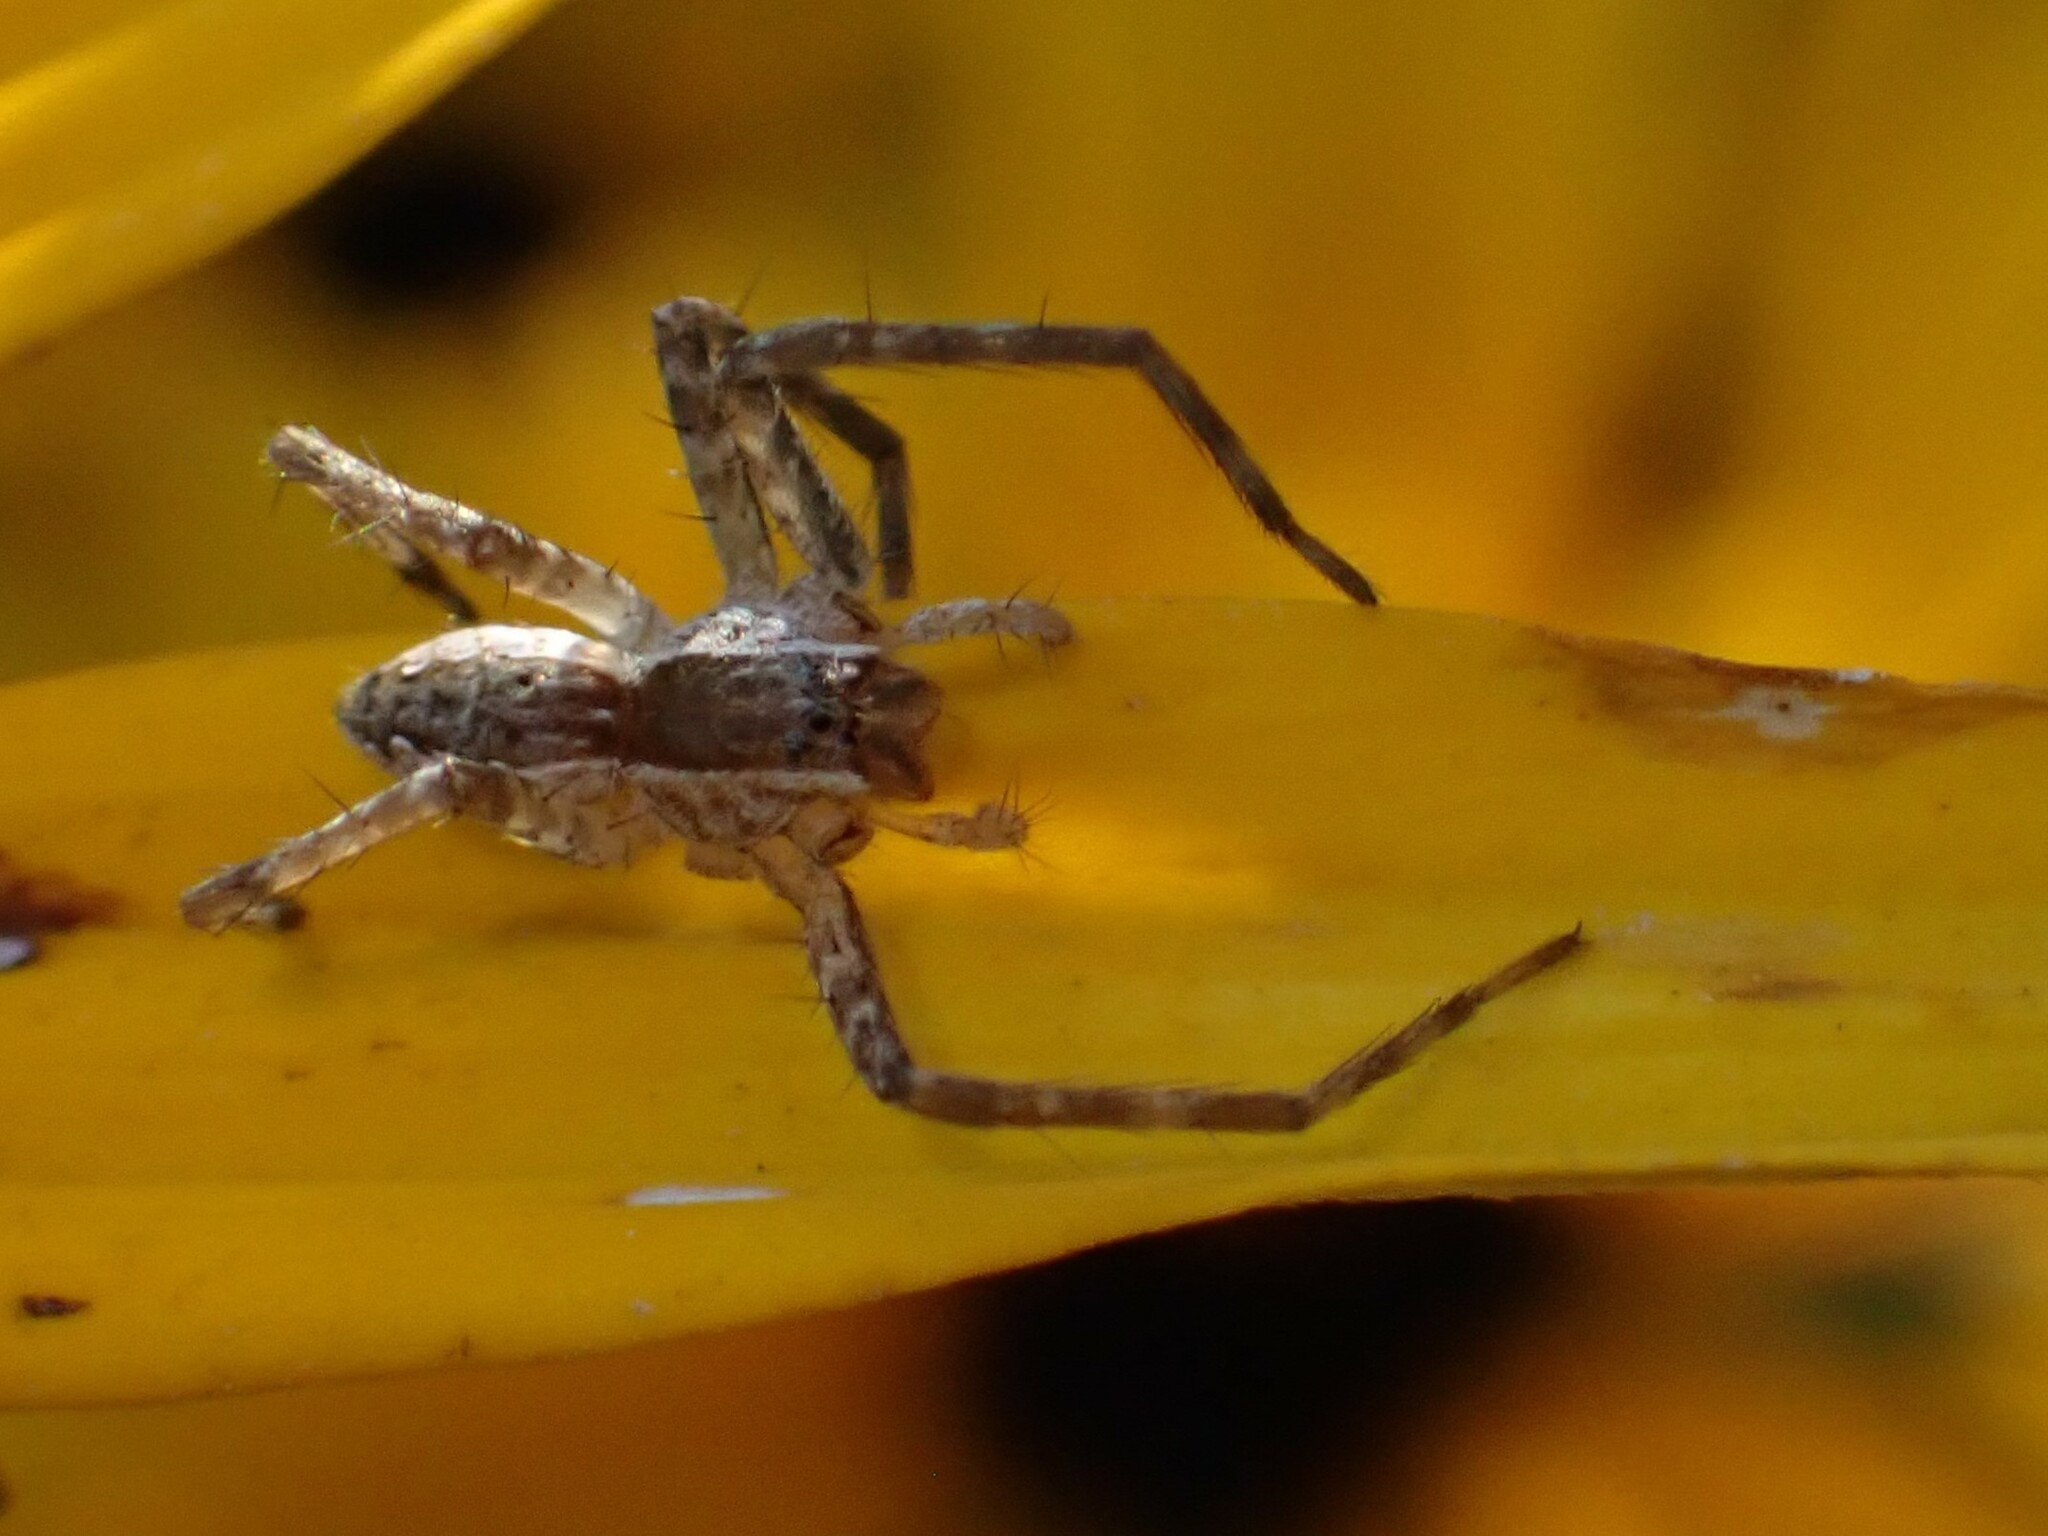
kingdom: Animalia
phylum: Arthropoda
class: Arachnida
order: Araneae
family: Pisauridae
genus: Pisaurina
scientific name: Pisaurina mira
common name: American nursery web spider
